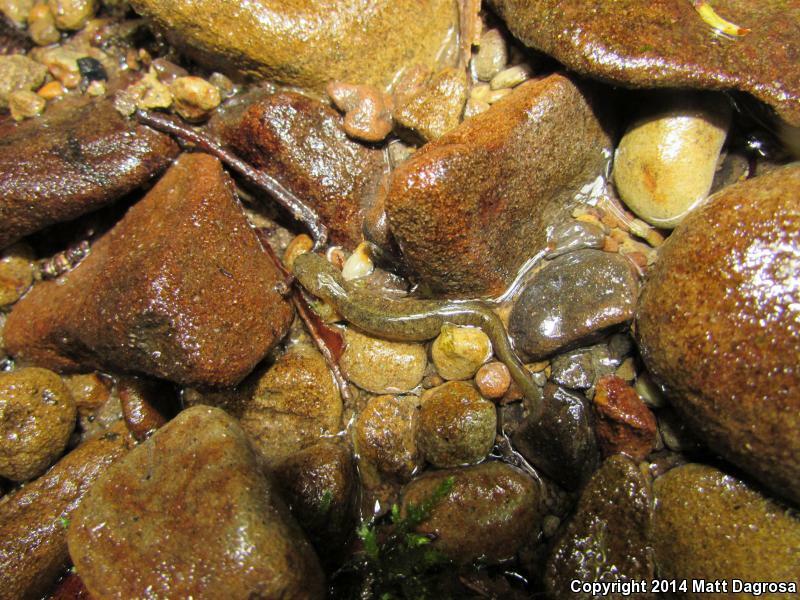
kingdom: Animalia
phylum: Chordata
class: Amphibia
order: Caudata
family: Rhyacotritonidae
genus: Rhyacotriton
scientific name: Rhyacotriton variegatus
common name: Southern torrent salamander
